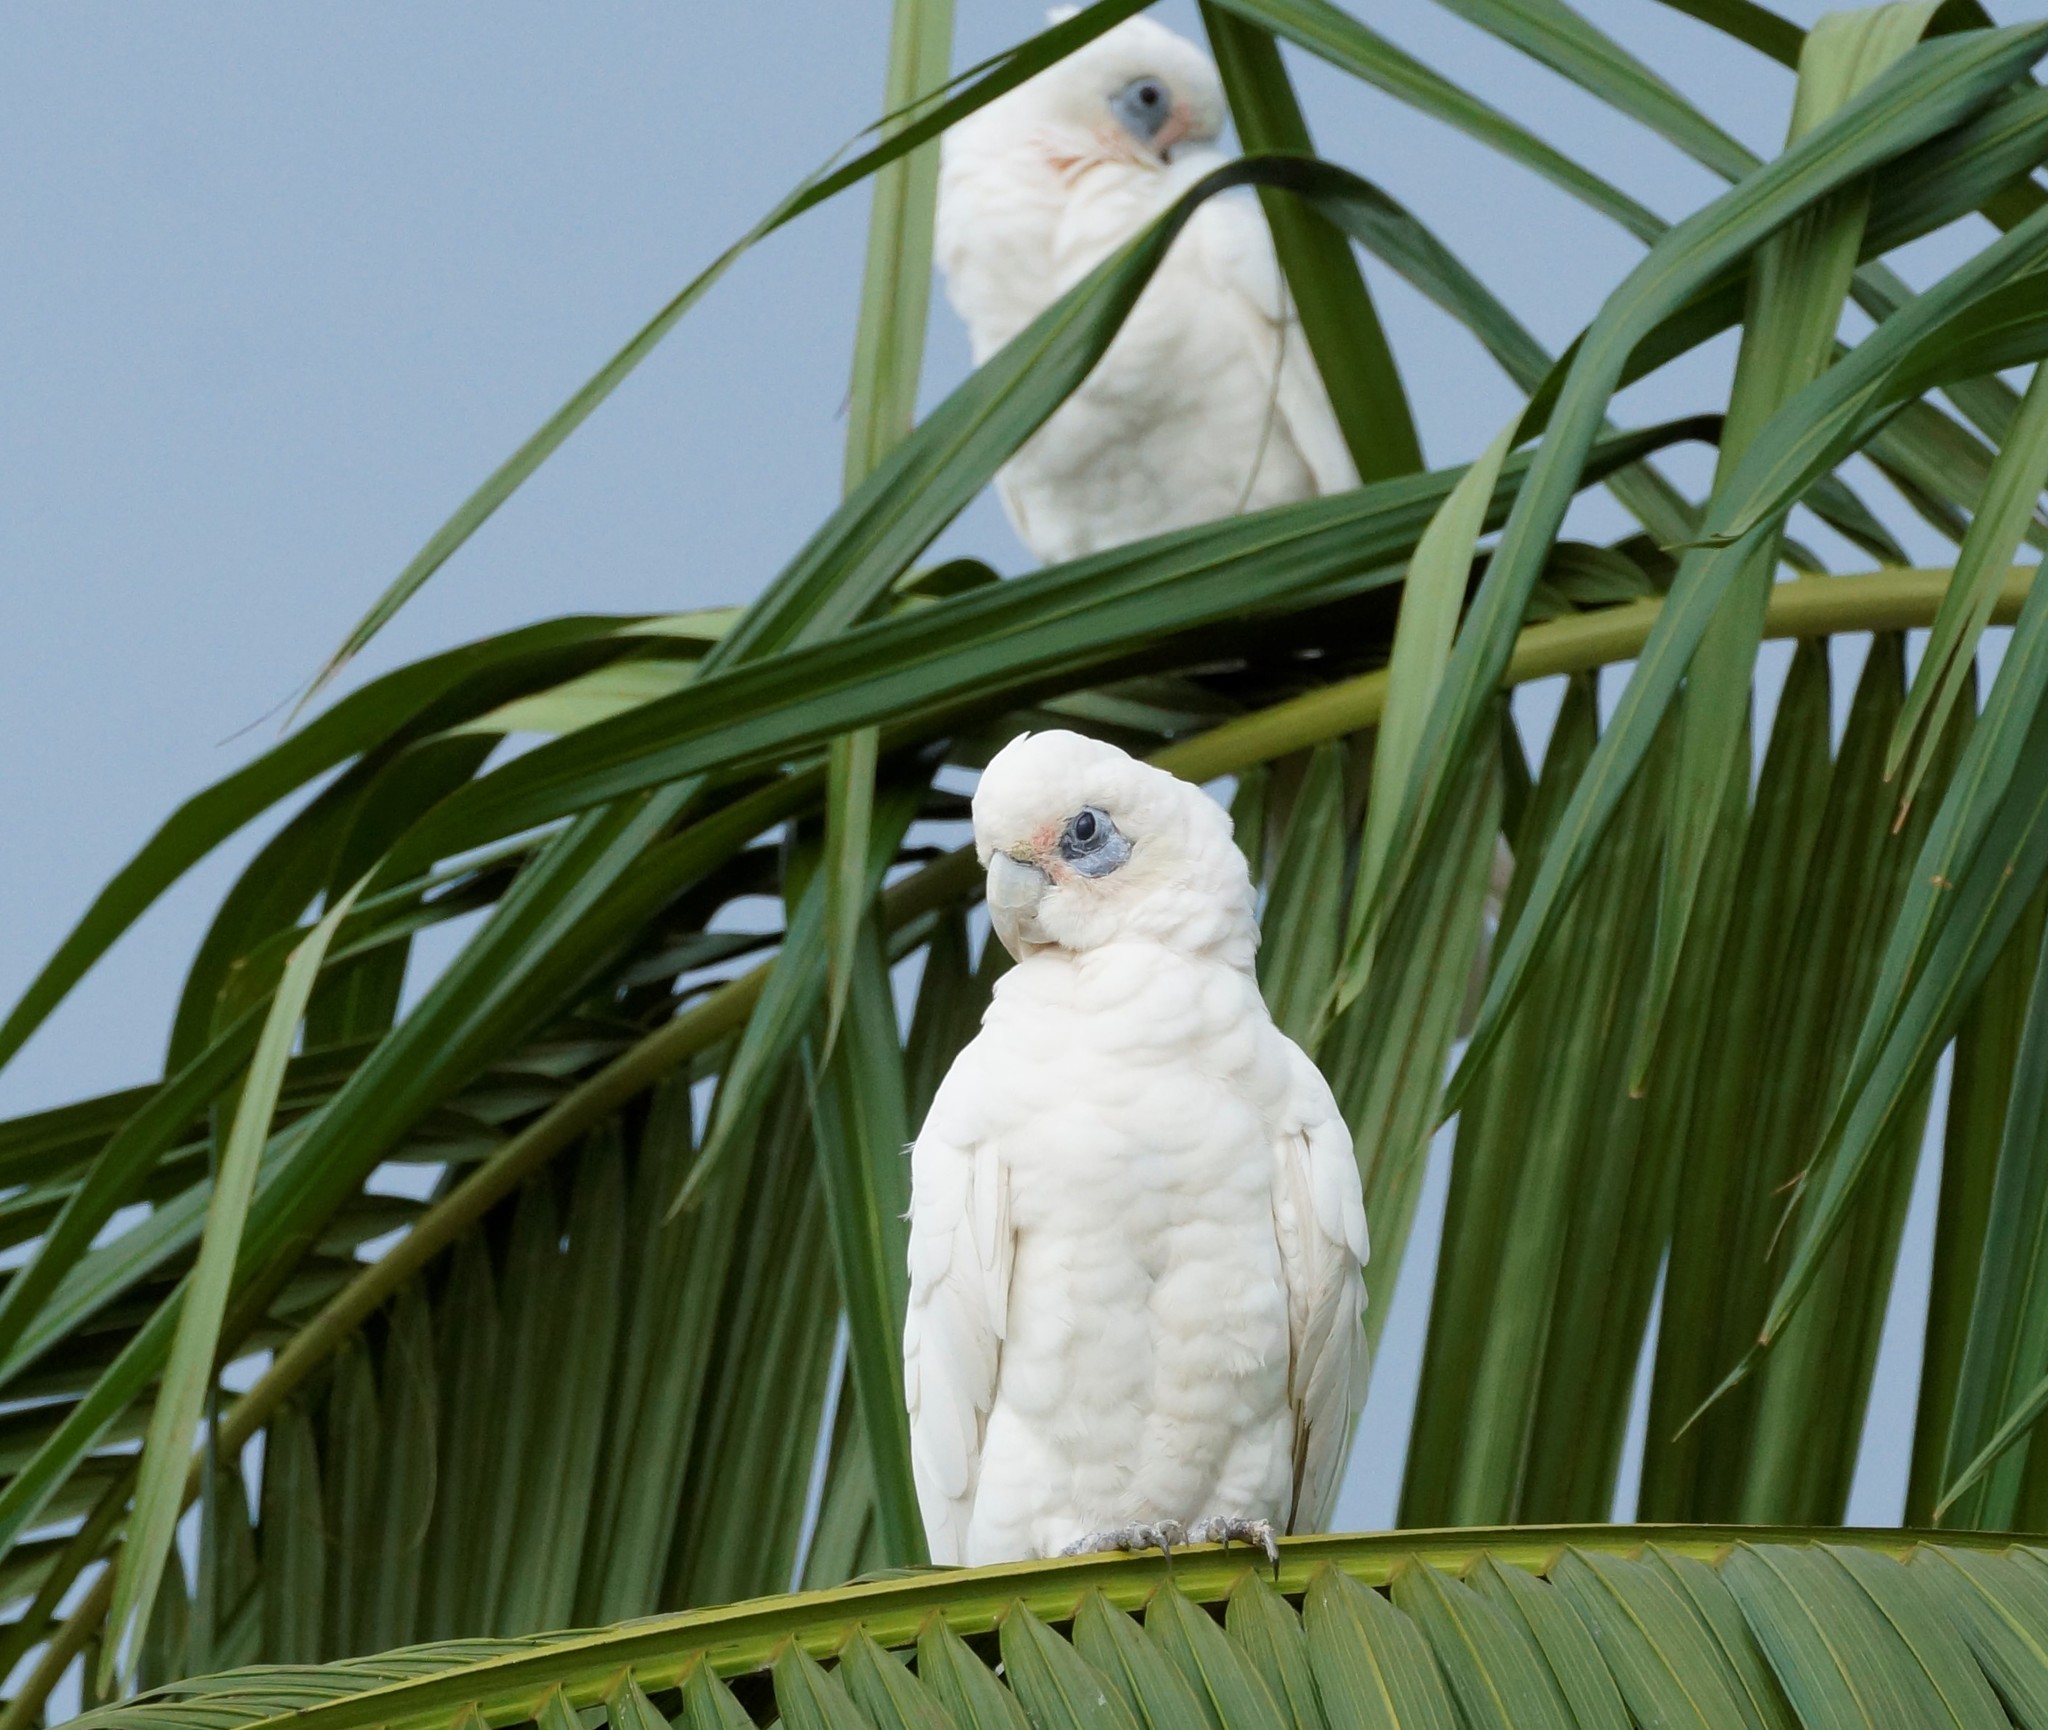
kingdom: Animalia
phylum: Chordata
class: Aves
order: Psittaciformes
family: Psittacidae
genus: Cacatua
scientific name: Cacatua sanguinea
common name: Little corella
